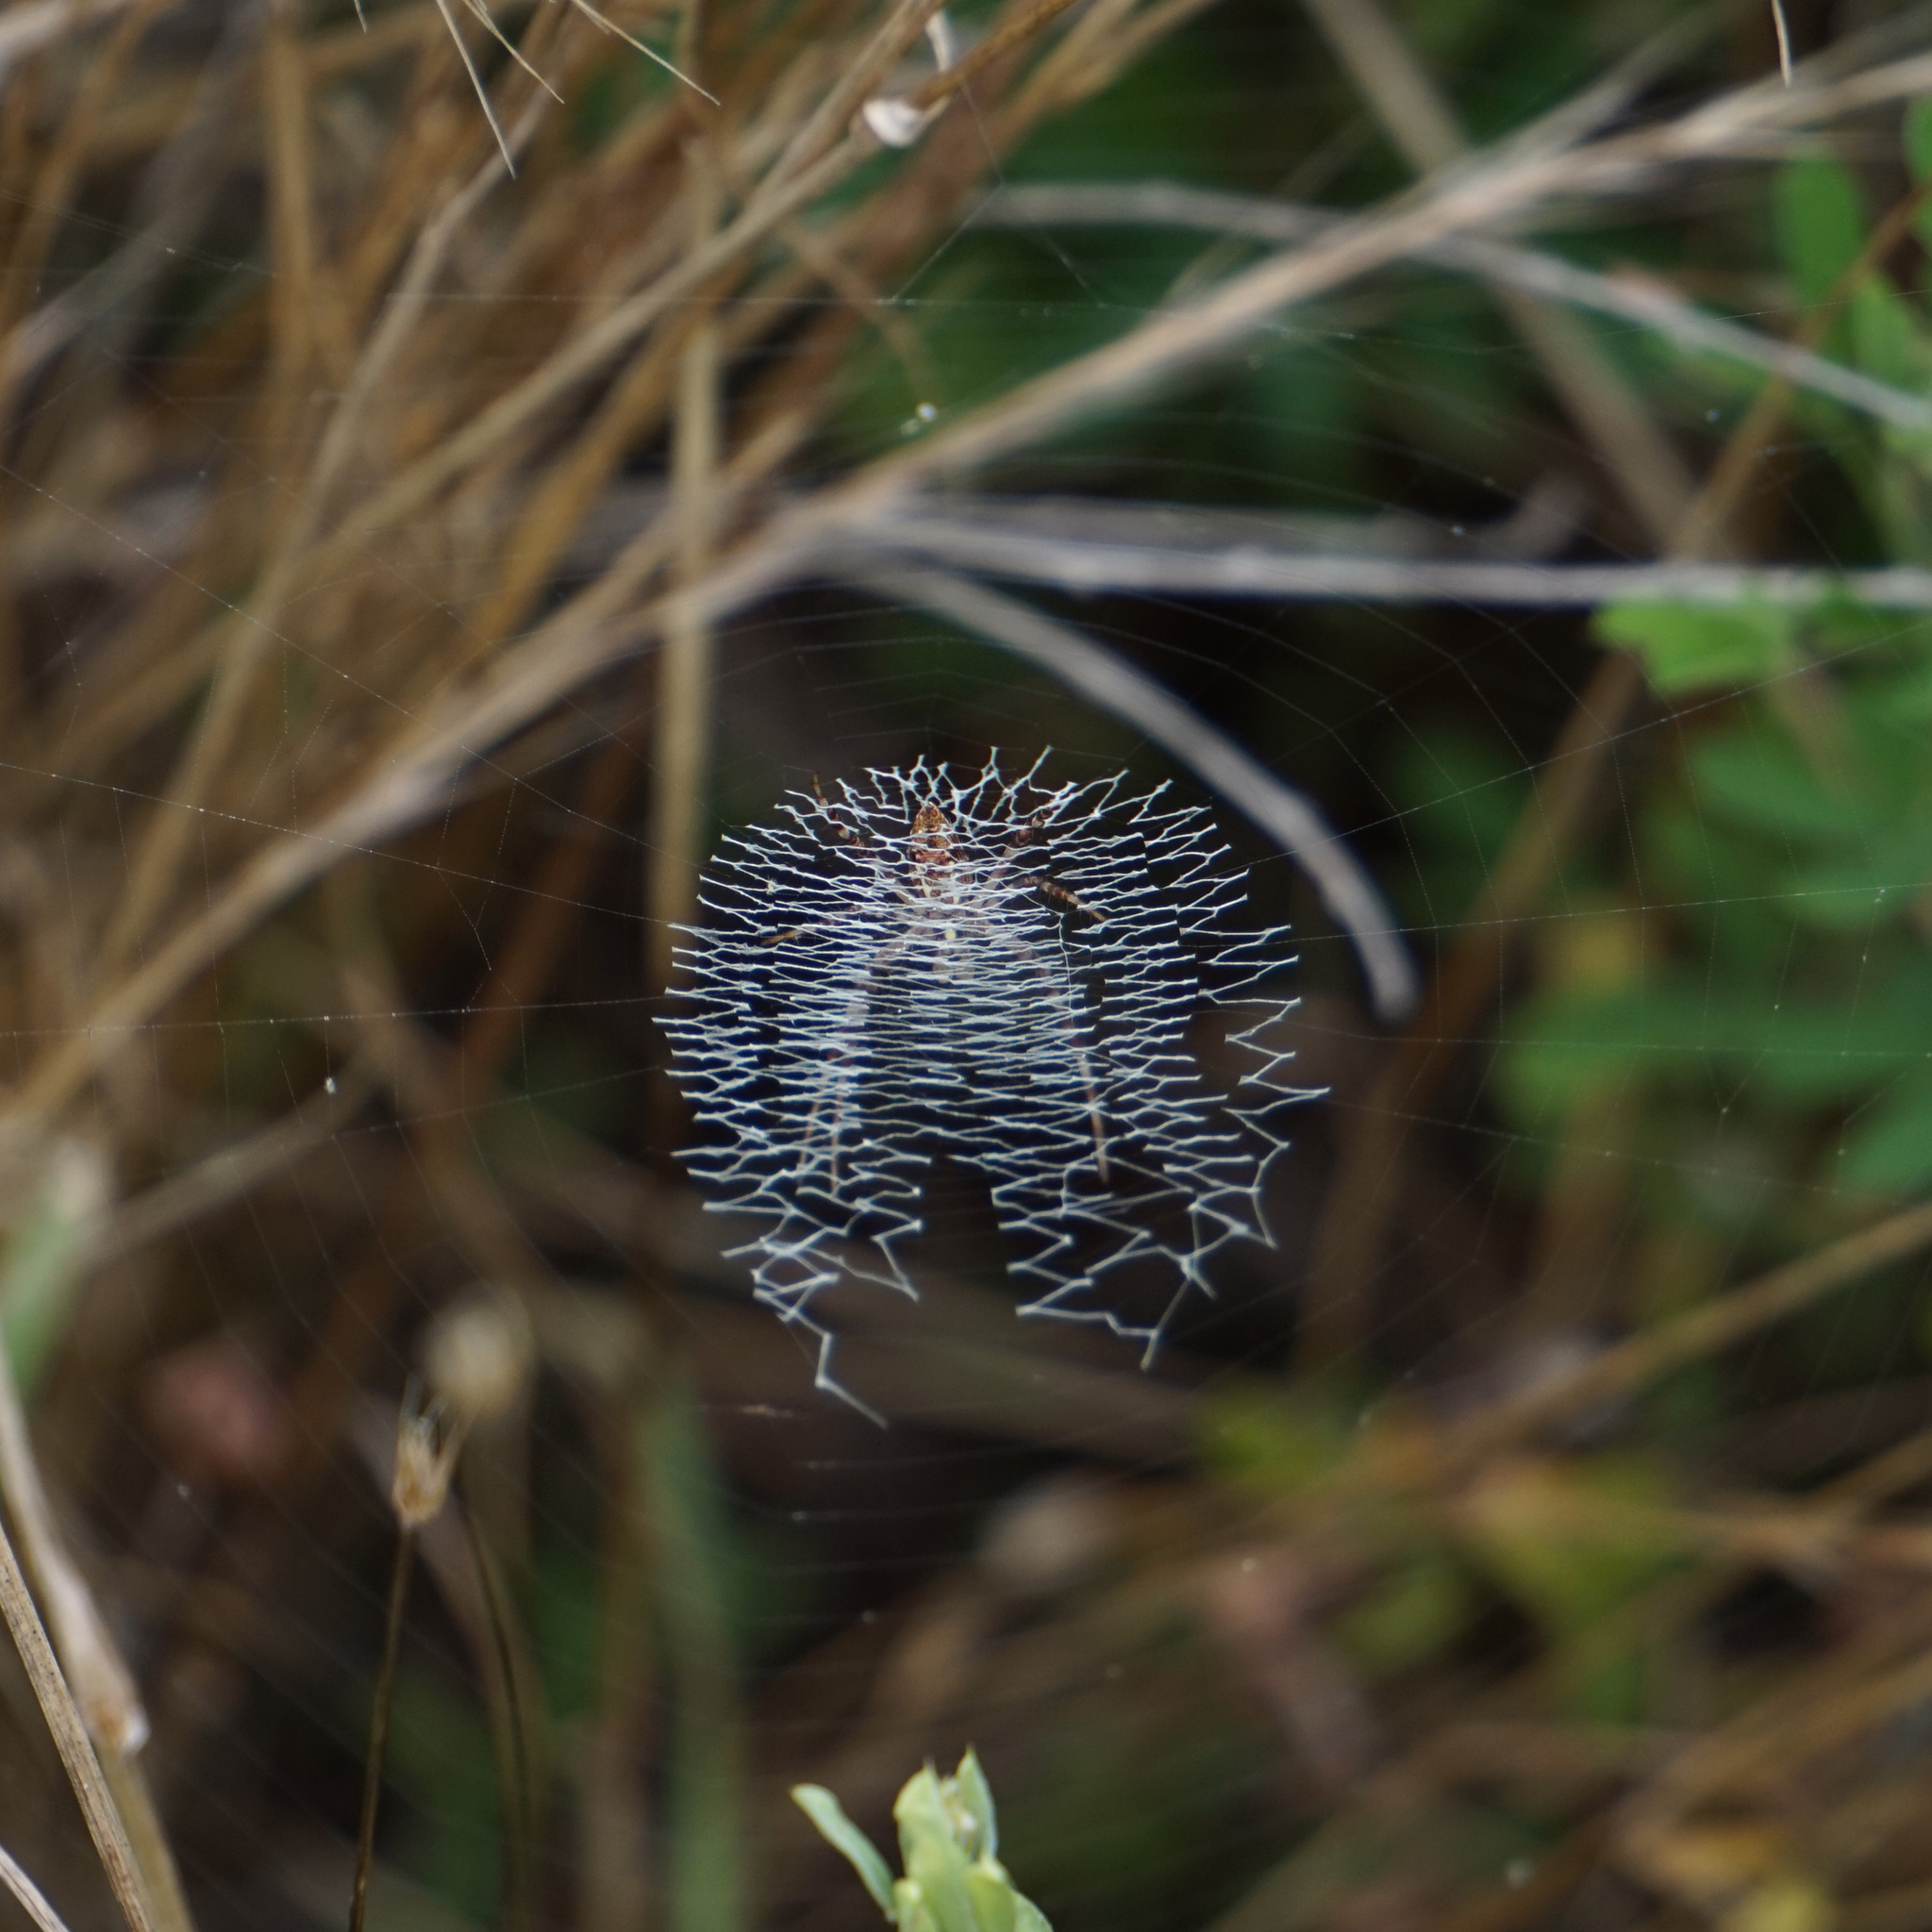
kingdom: Animalia
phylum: Arthropoda
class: Arachnida
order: Araneae
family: Araneidae
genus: Argiope
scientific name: Argiope aurantia
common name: Orb weavers
